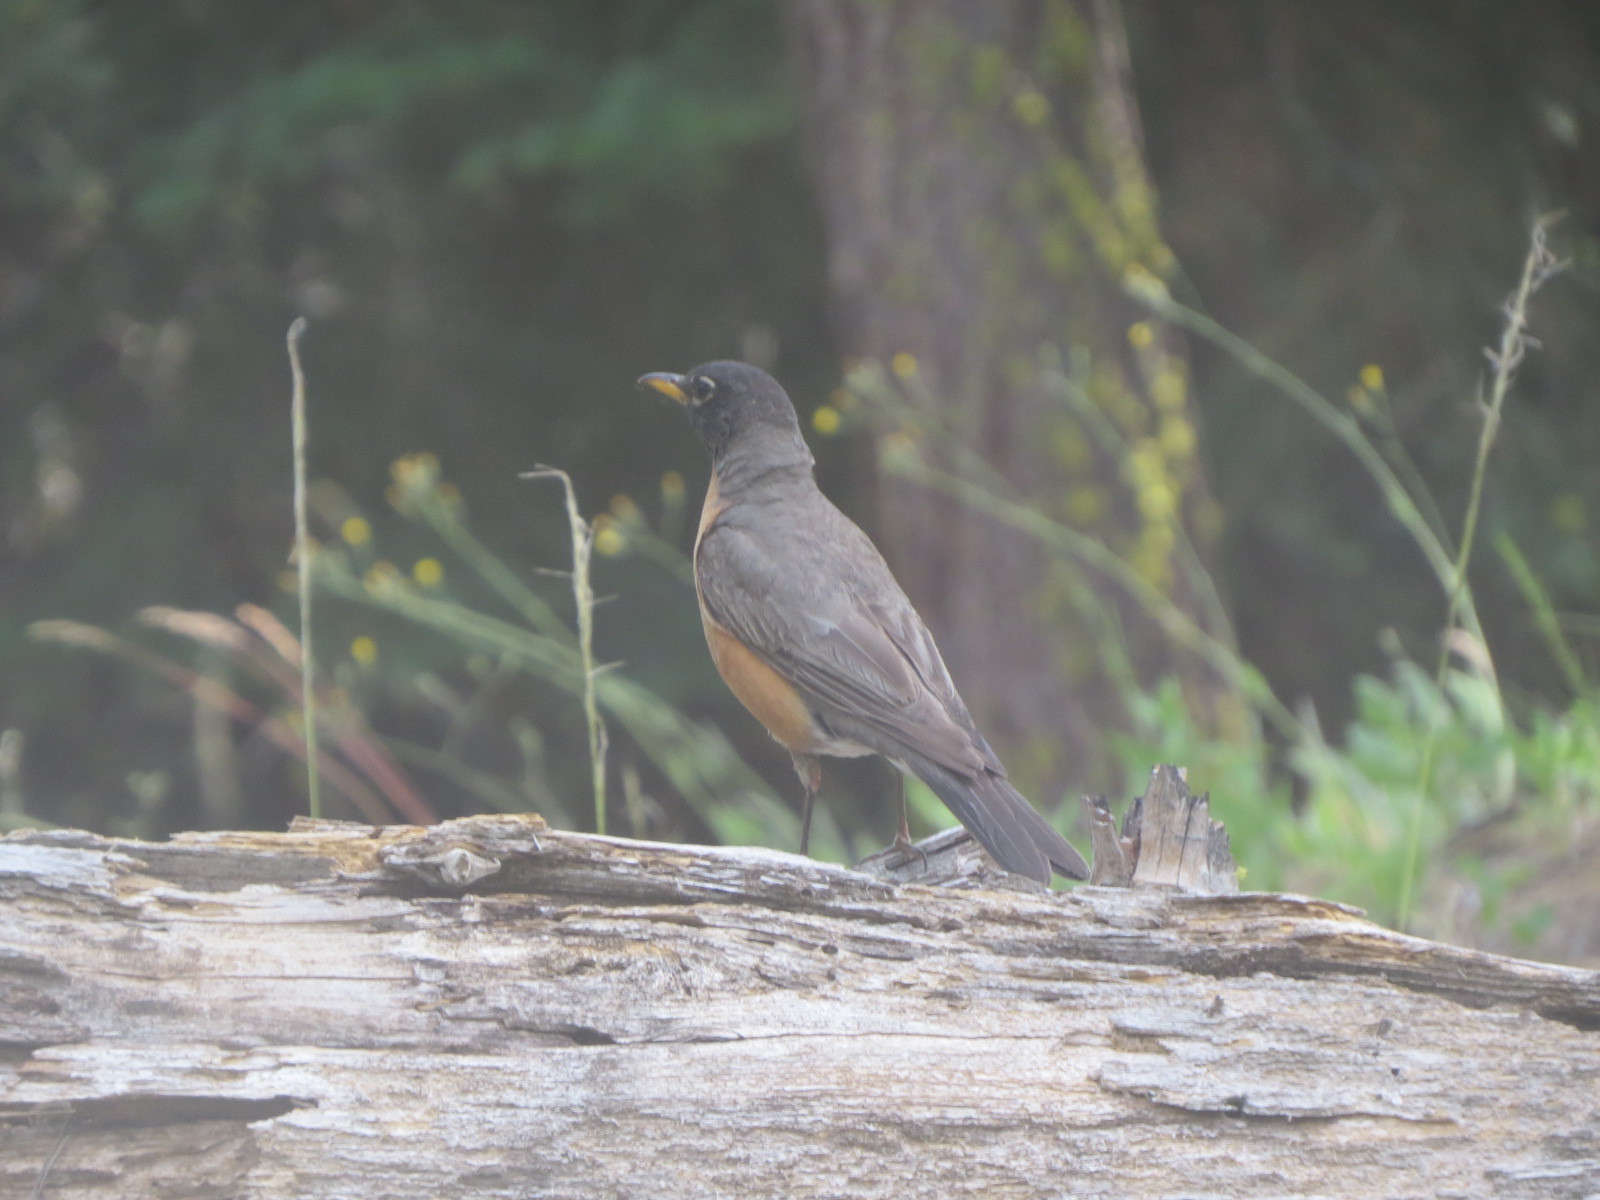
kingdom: Animalia
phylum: Chordata
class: Aves
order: Passeriformes
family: Turdidae
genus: Turdus
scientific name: Turdus migratorius
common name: American robin
